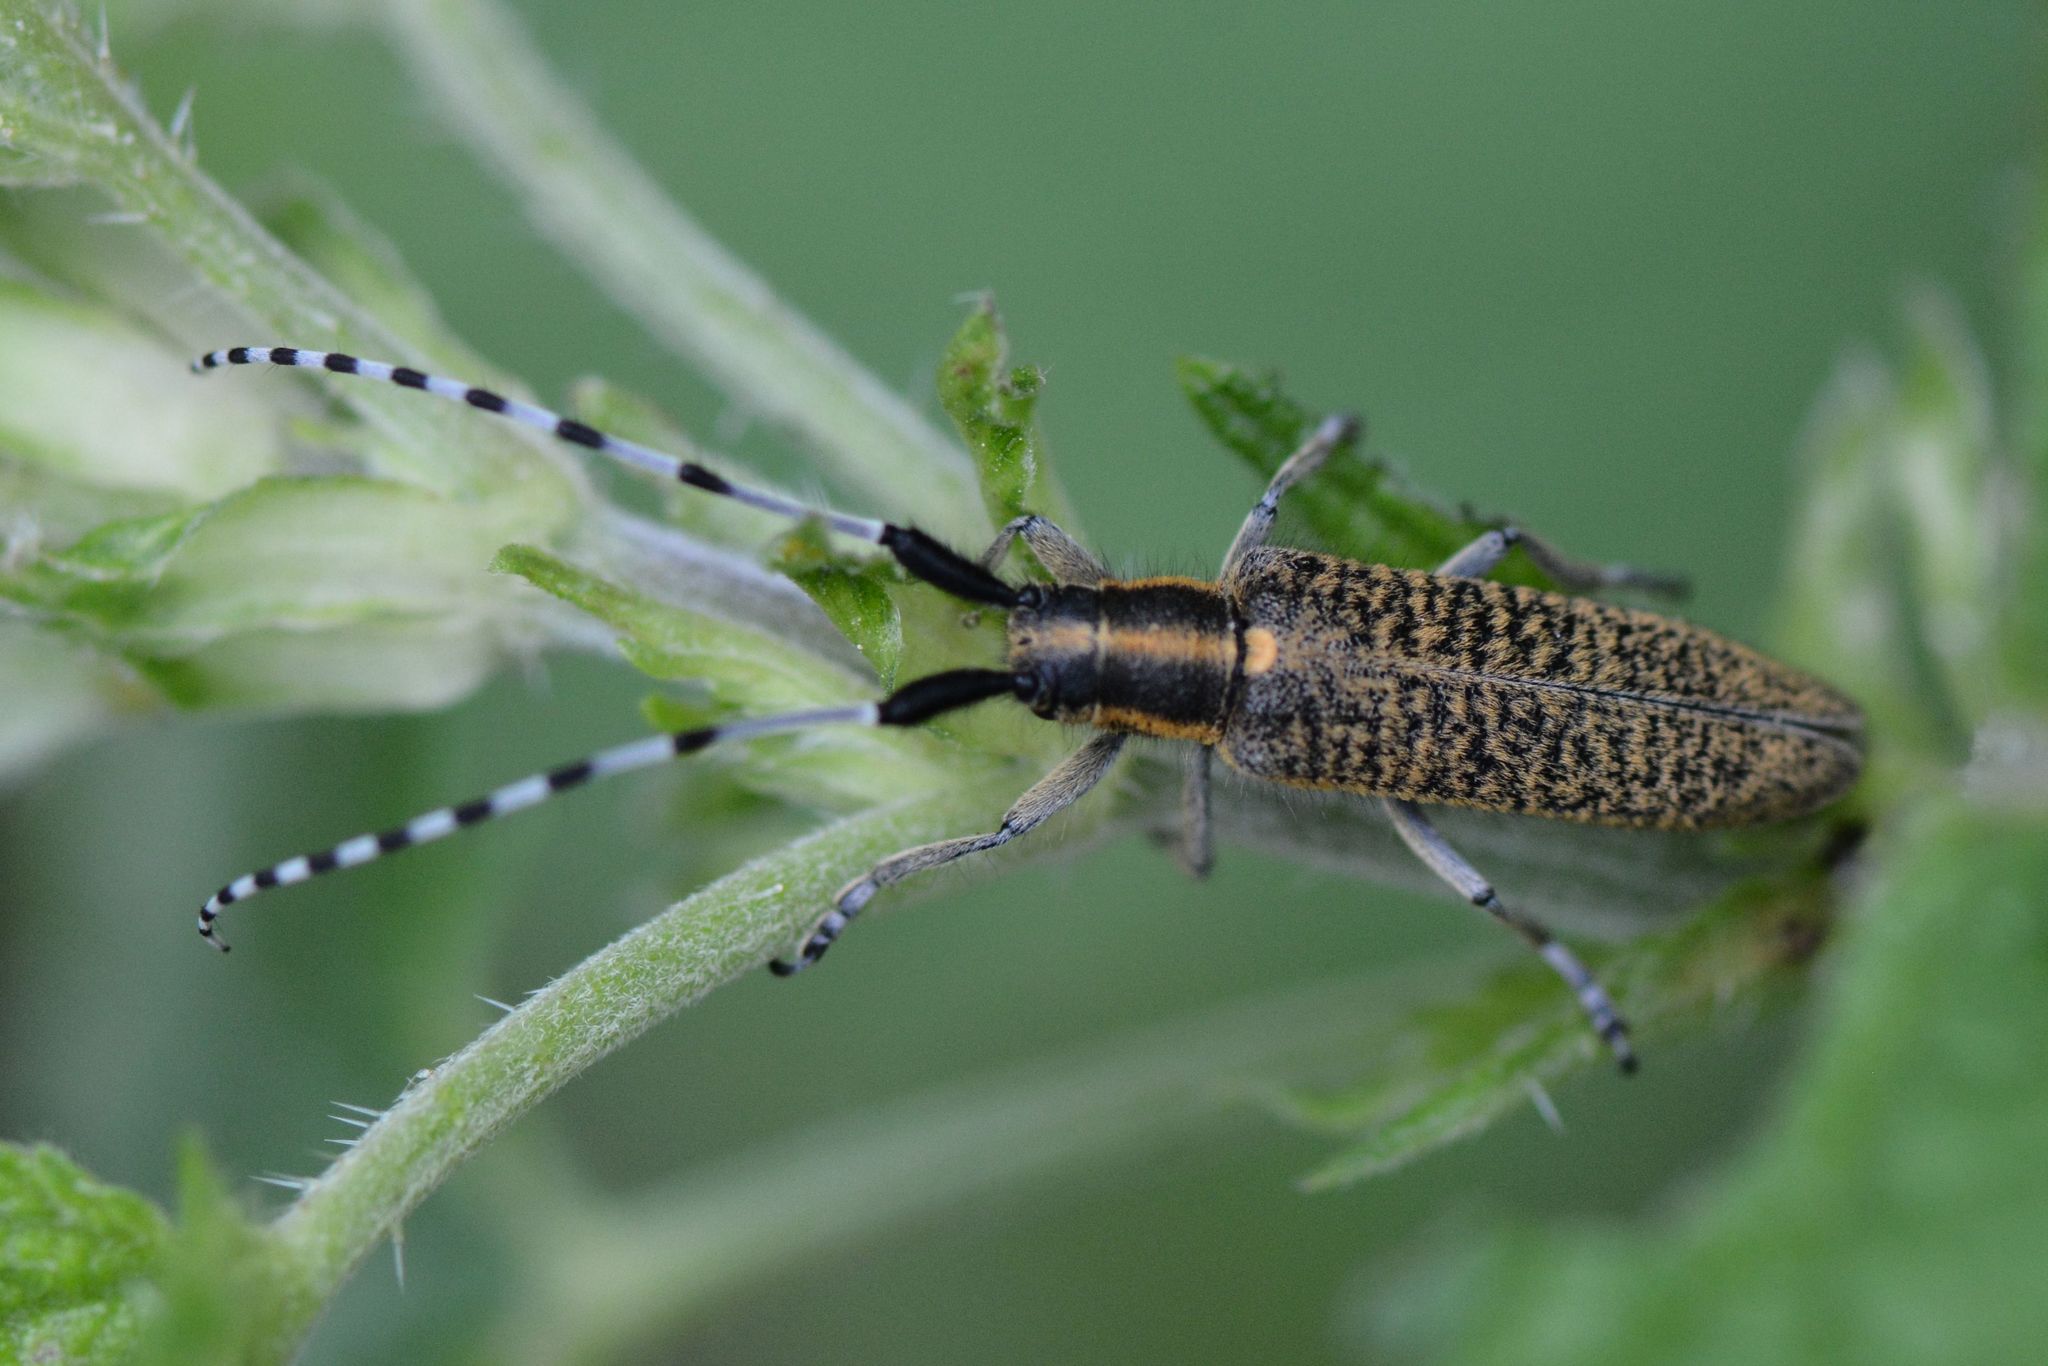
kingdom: Animalia
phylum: Arthropoda
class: Insecta
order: Coleoptera
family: Cerambycidae
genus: Agapanthia
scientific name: Agapanthia villosoviridescens
